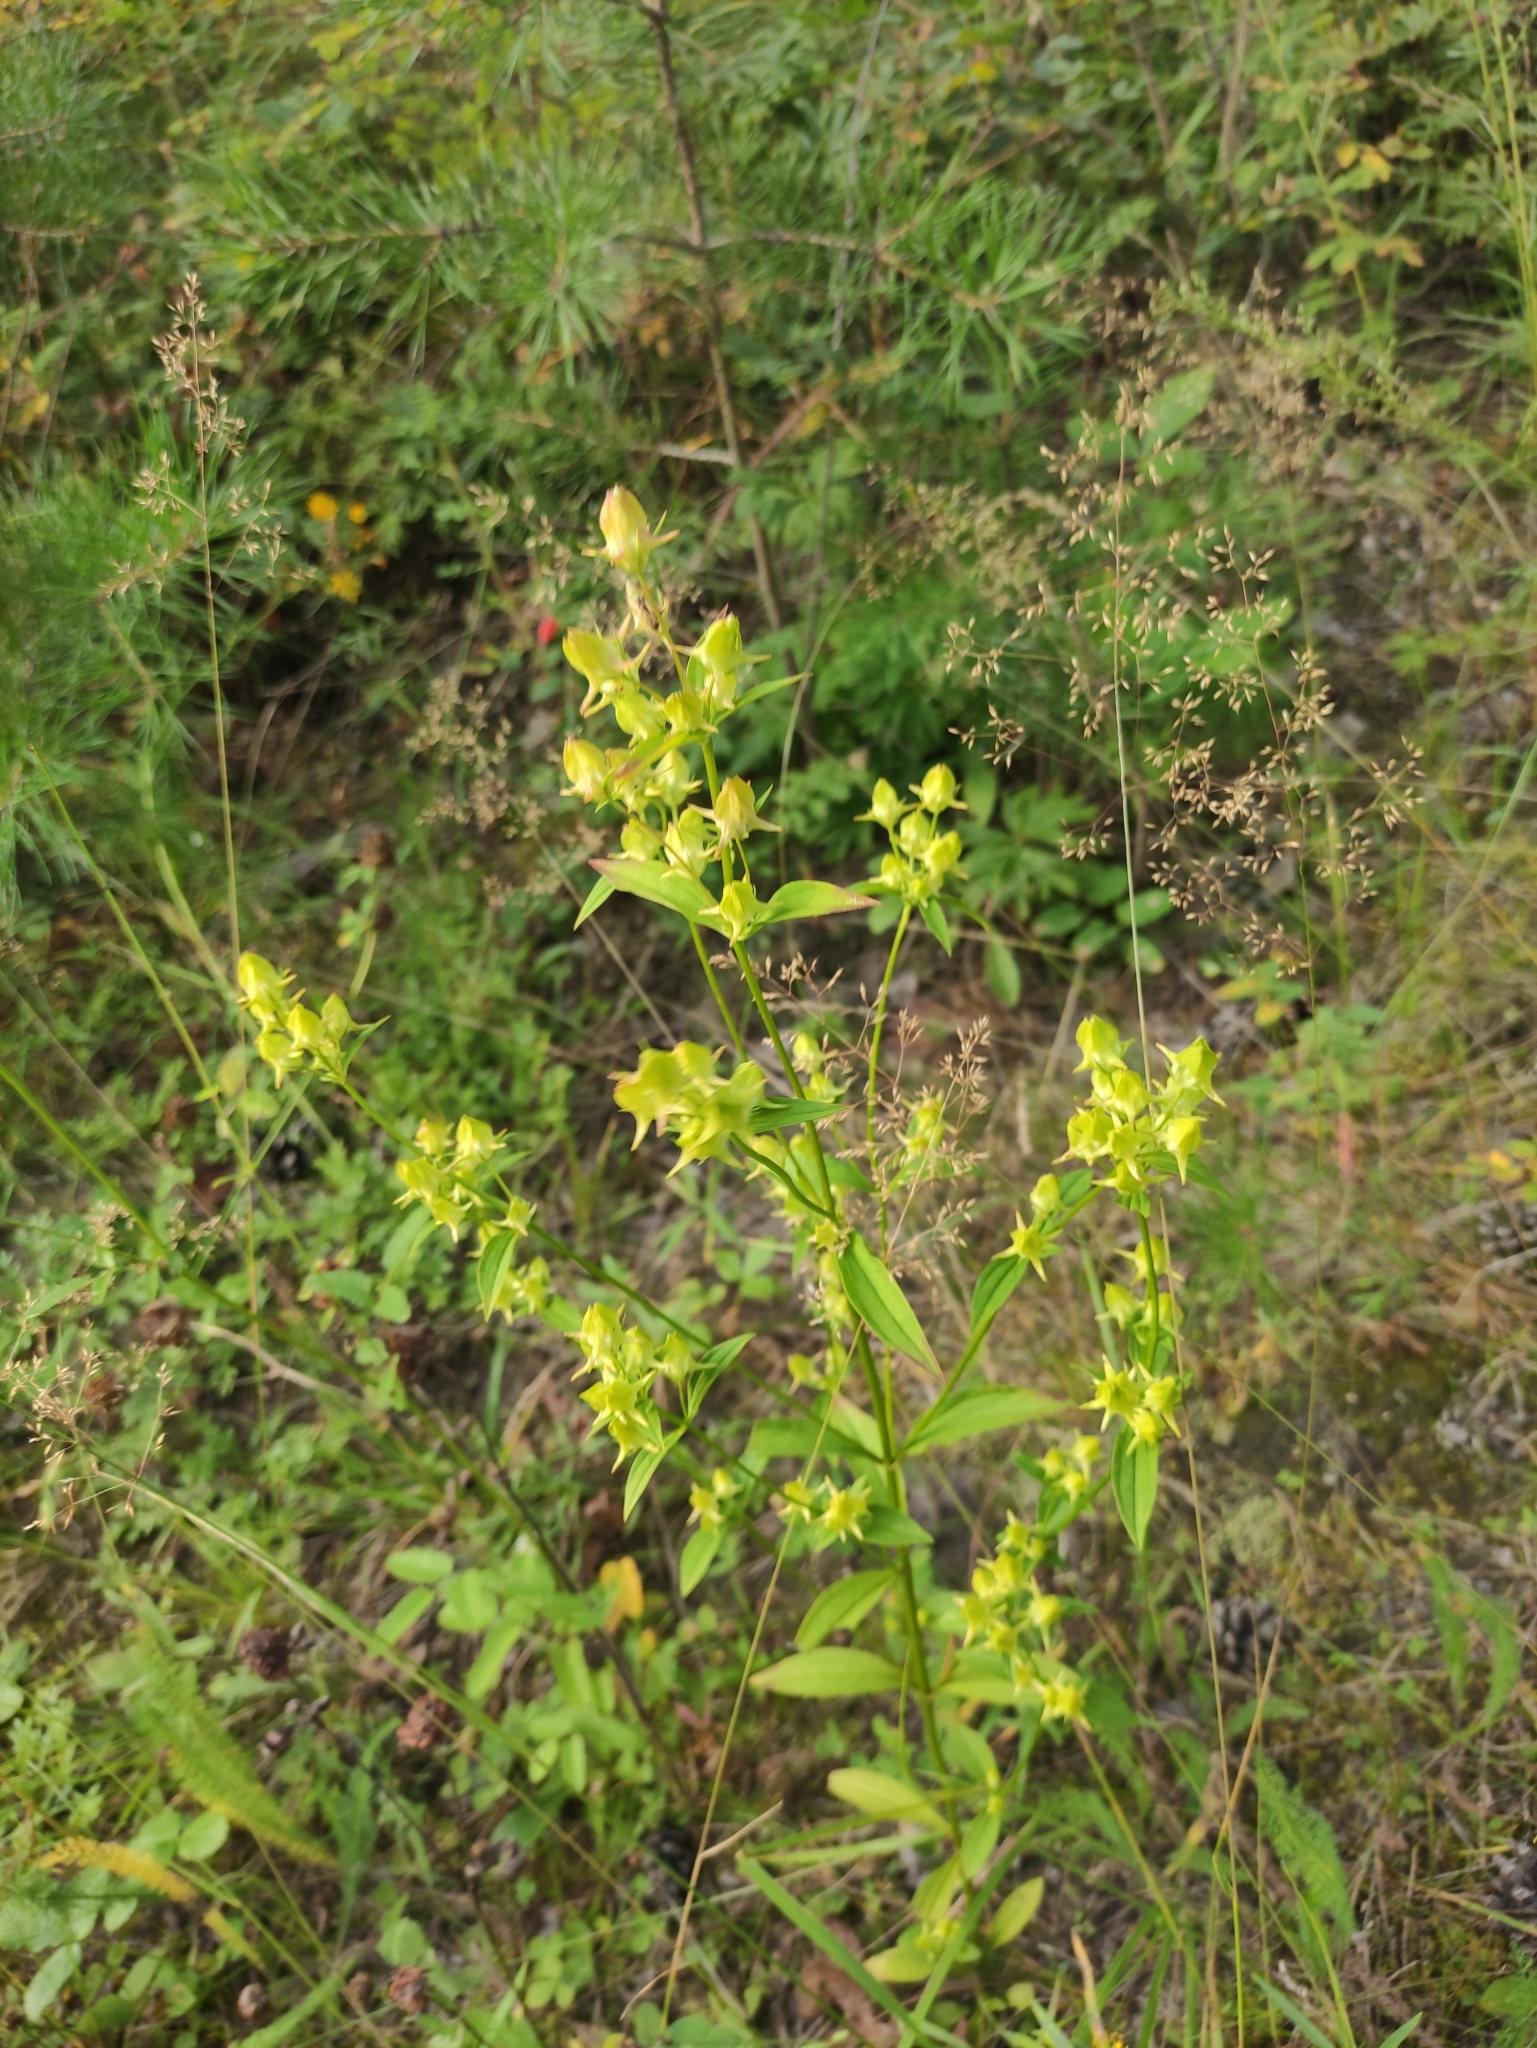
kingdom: Plantae
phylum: Tracheophyta
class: Magnoliopsida
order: Gentianales
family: Gentianaceae
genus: Halenia
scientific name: Halenia corniculata
